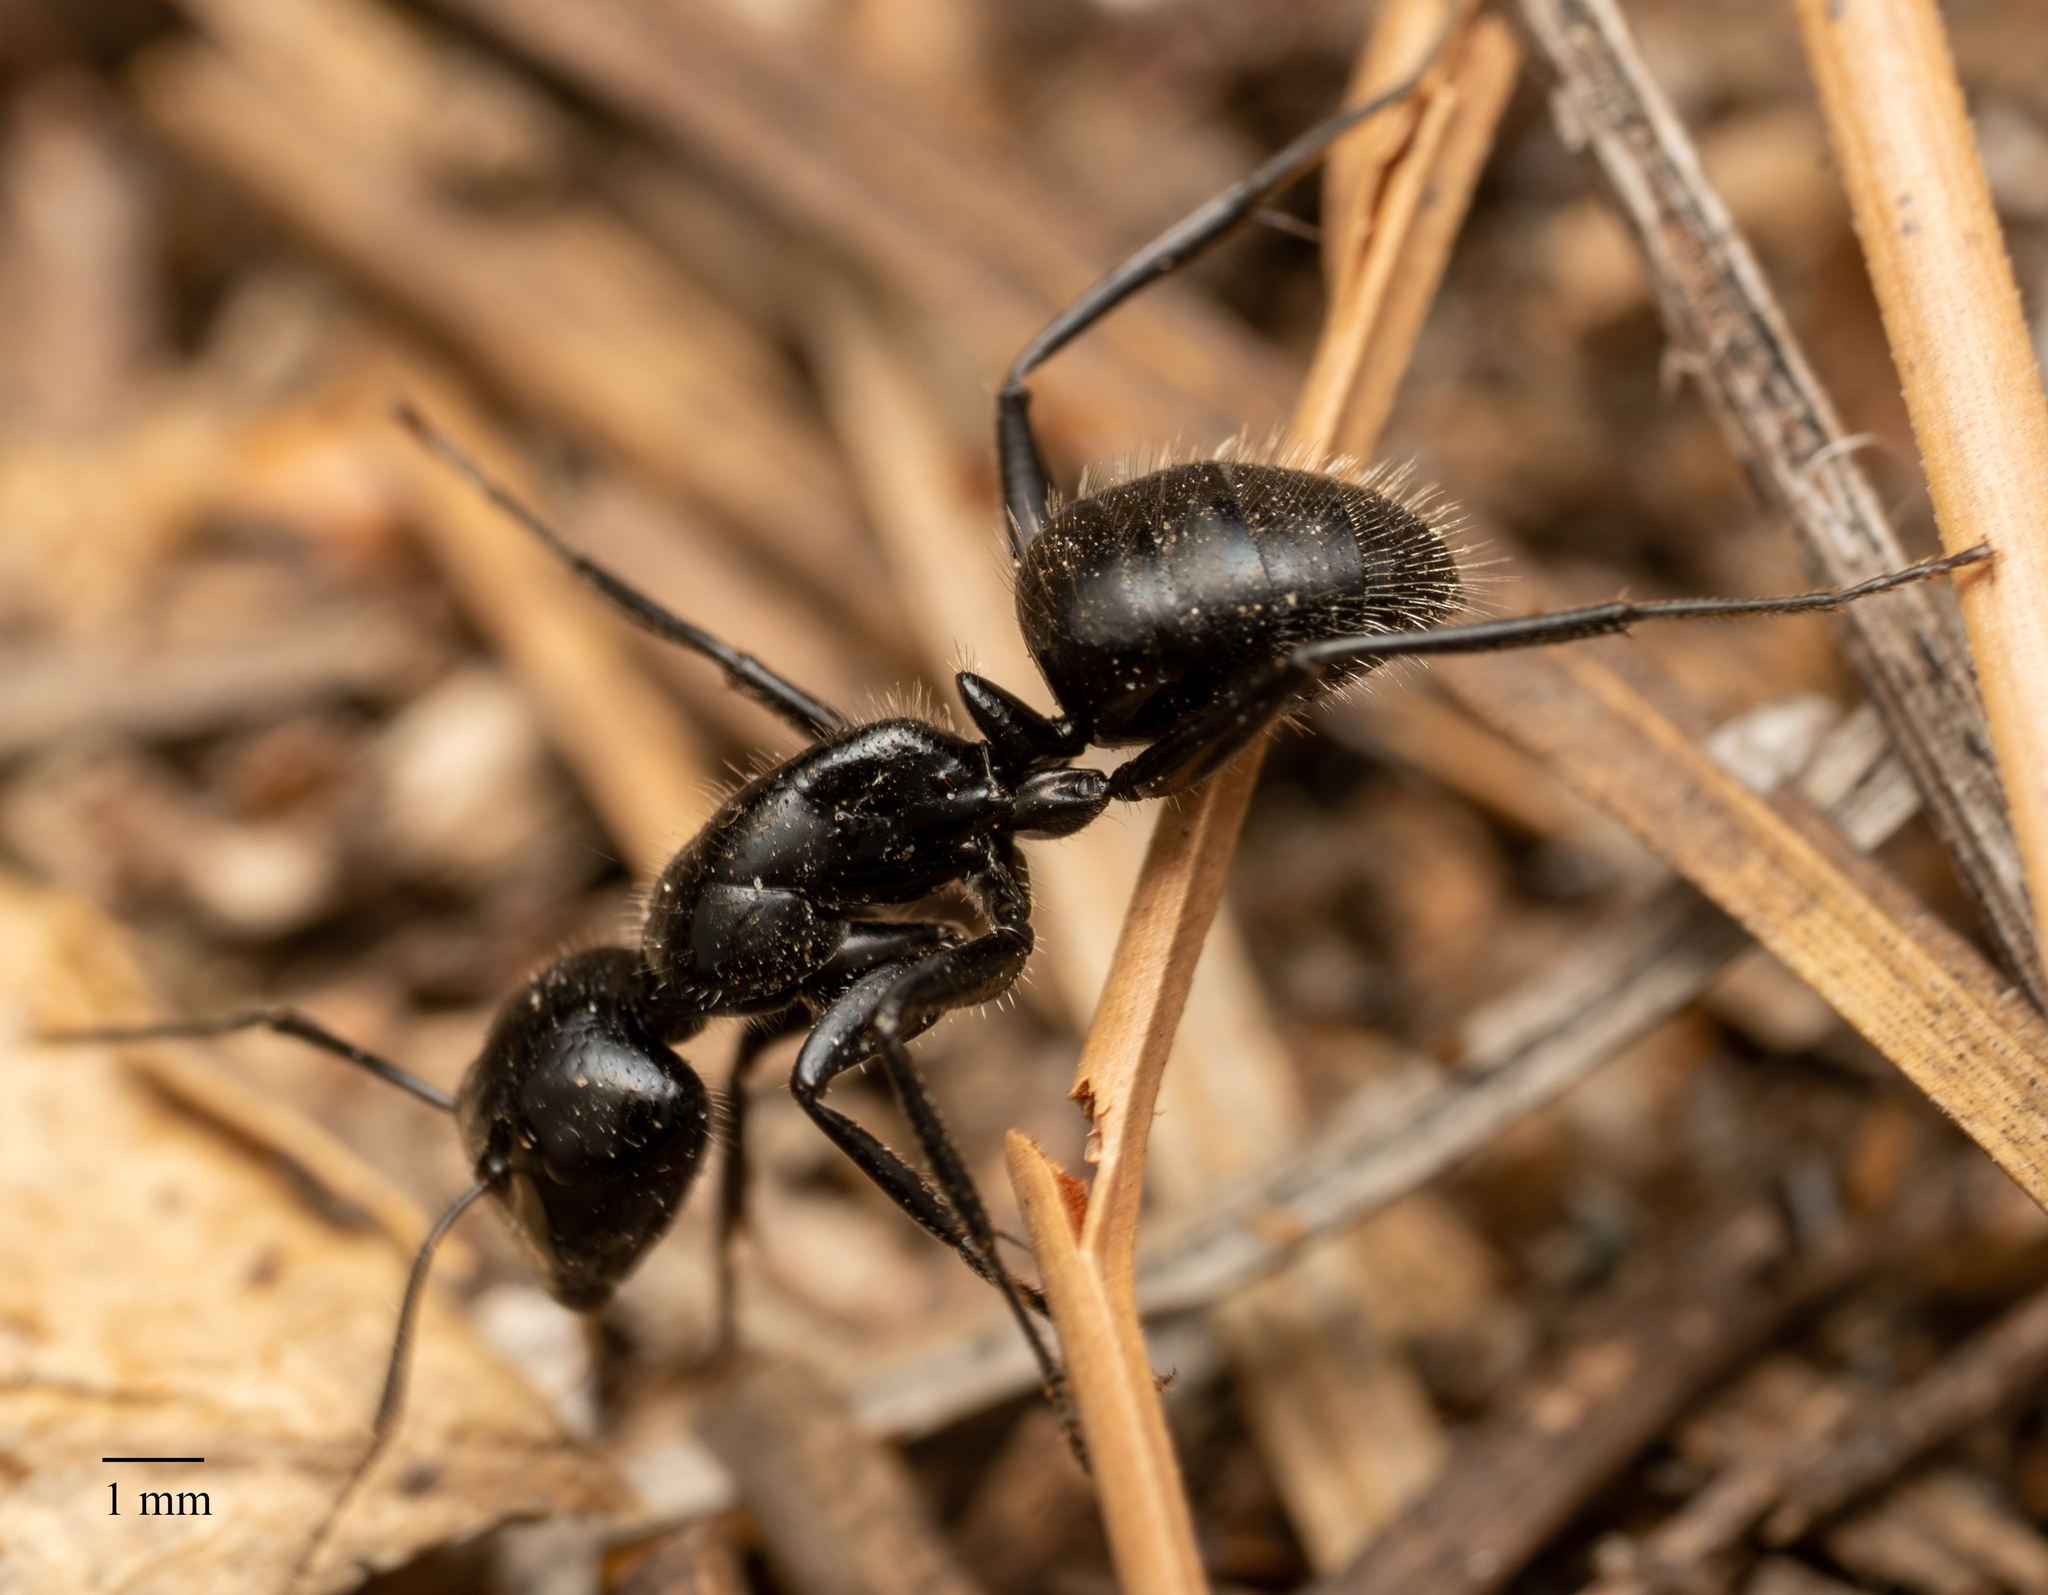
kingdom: Animalia
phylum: Arthropoda
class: Insecta
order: Hymenoptera
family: Formicidae
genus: Camponotus
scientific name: Camponotus
